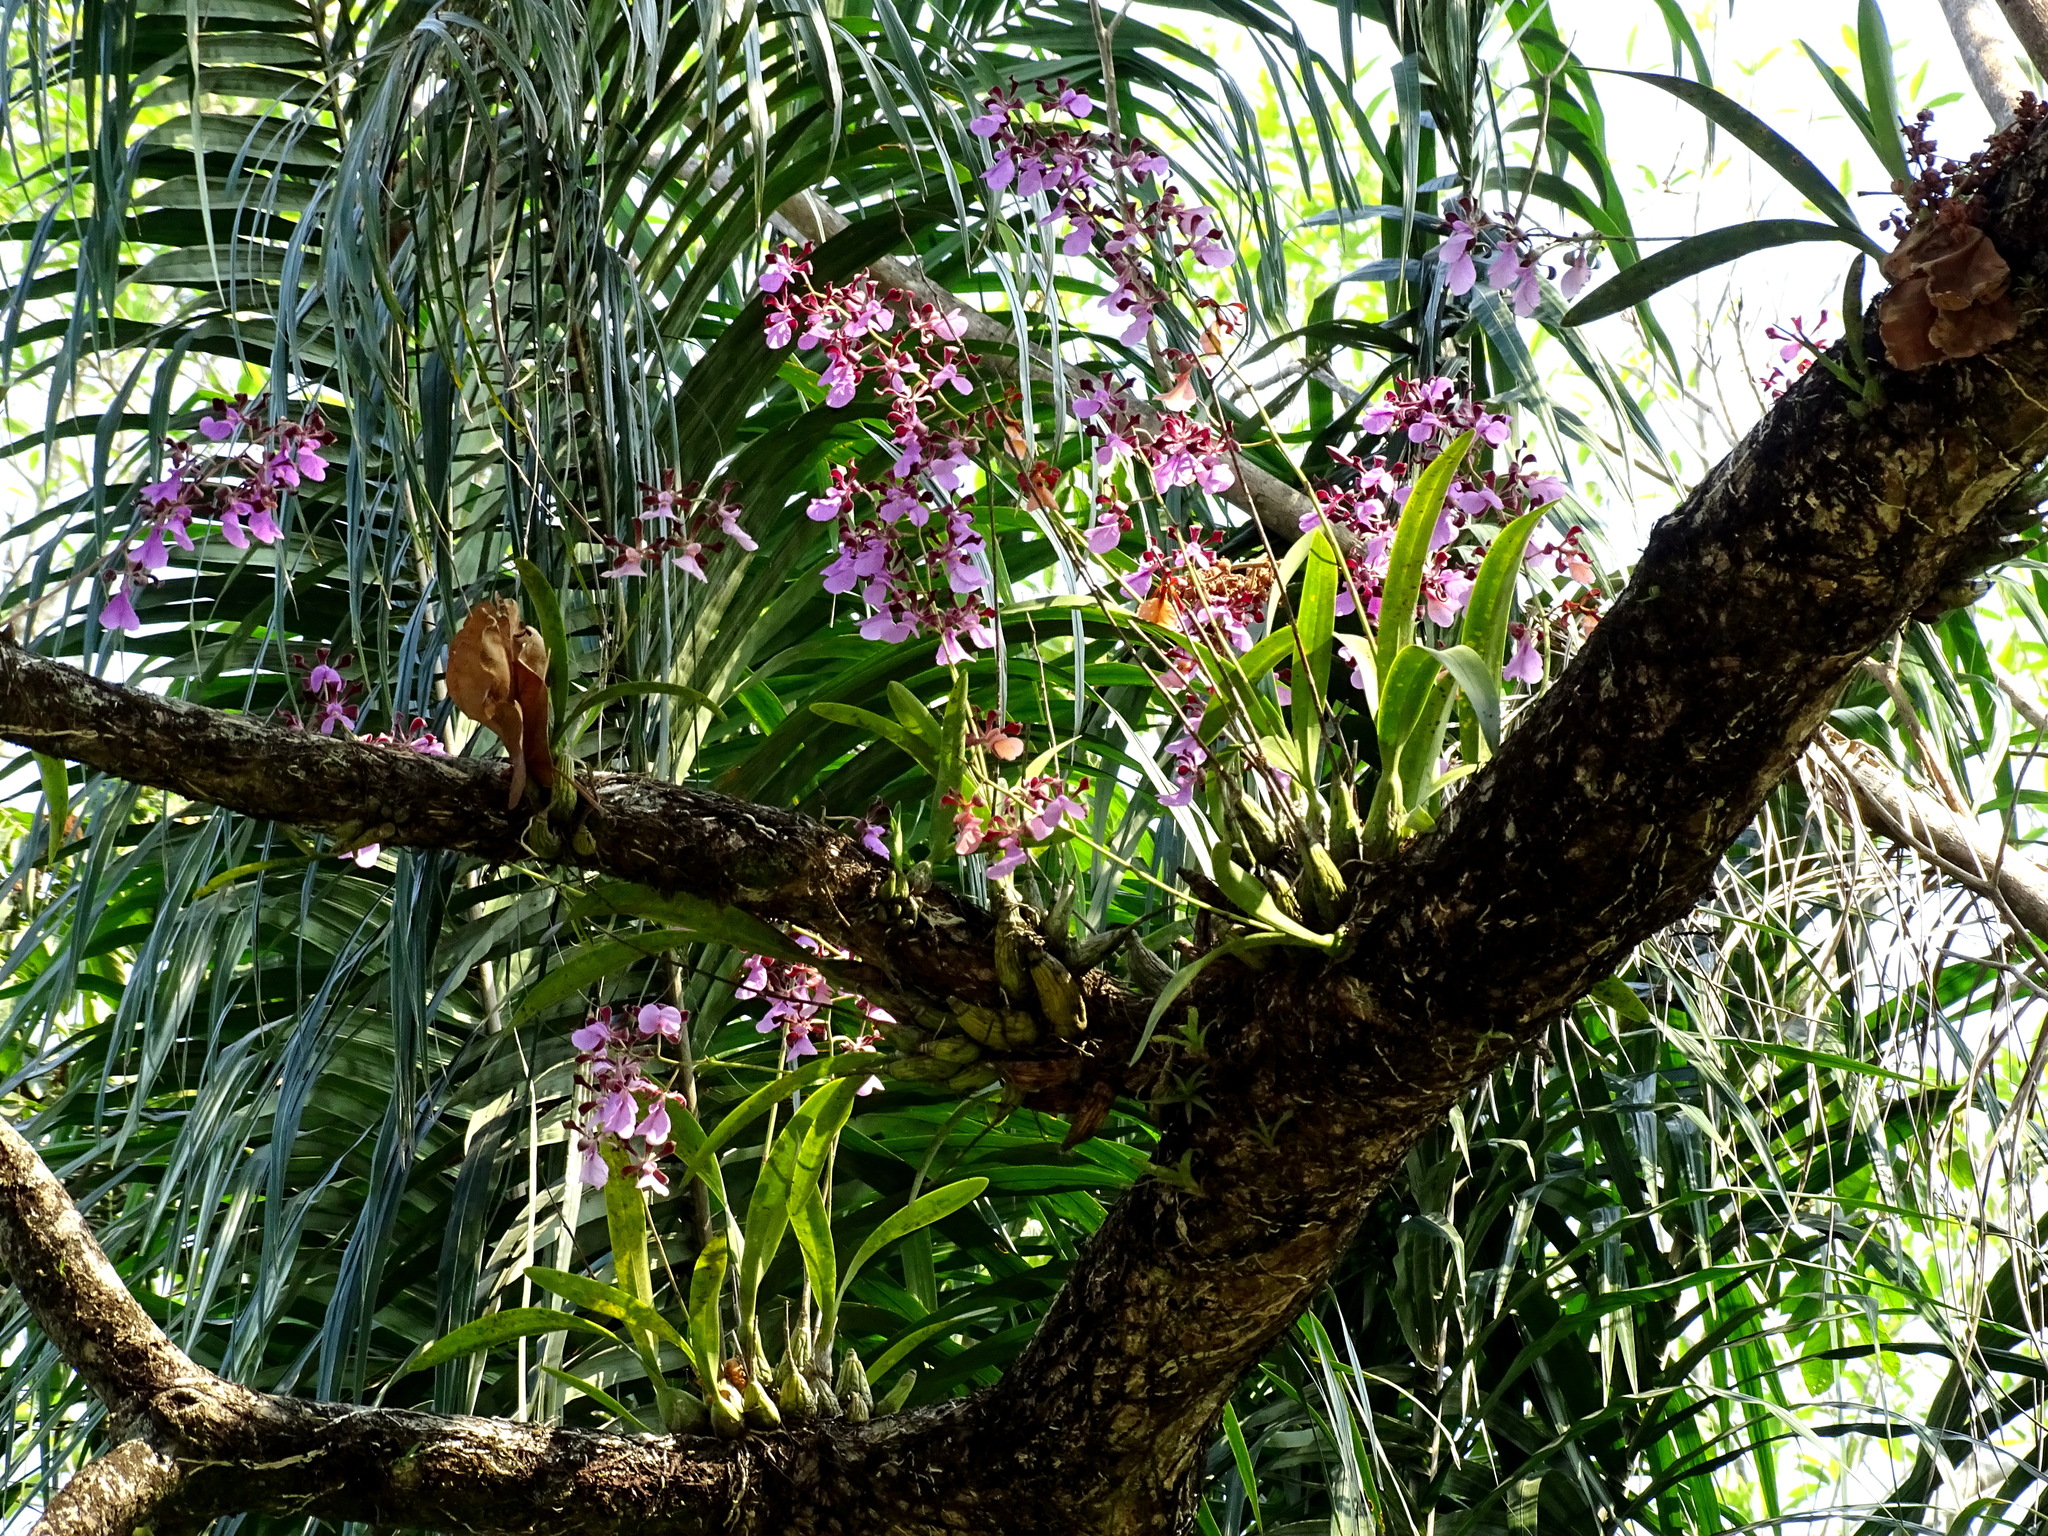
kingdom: Plantae
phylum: Tracheophyta
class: Liliopsida
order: Asparagales
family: Orchidaceae
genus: Encyclia
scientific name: Encyclia cordigera
